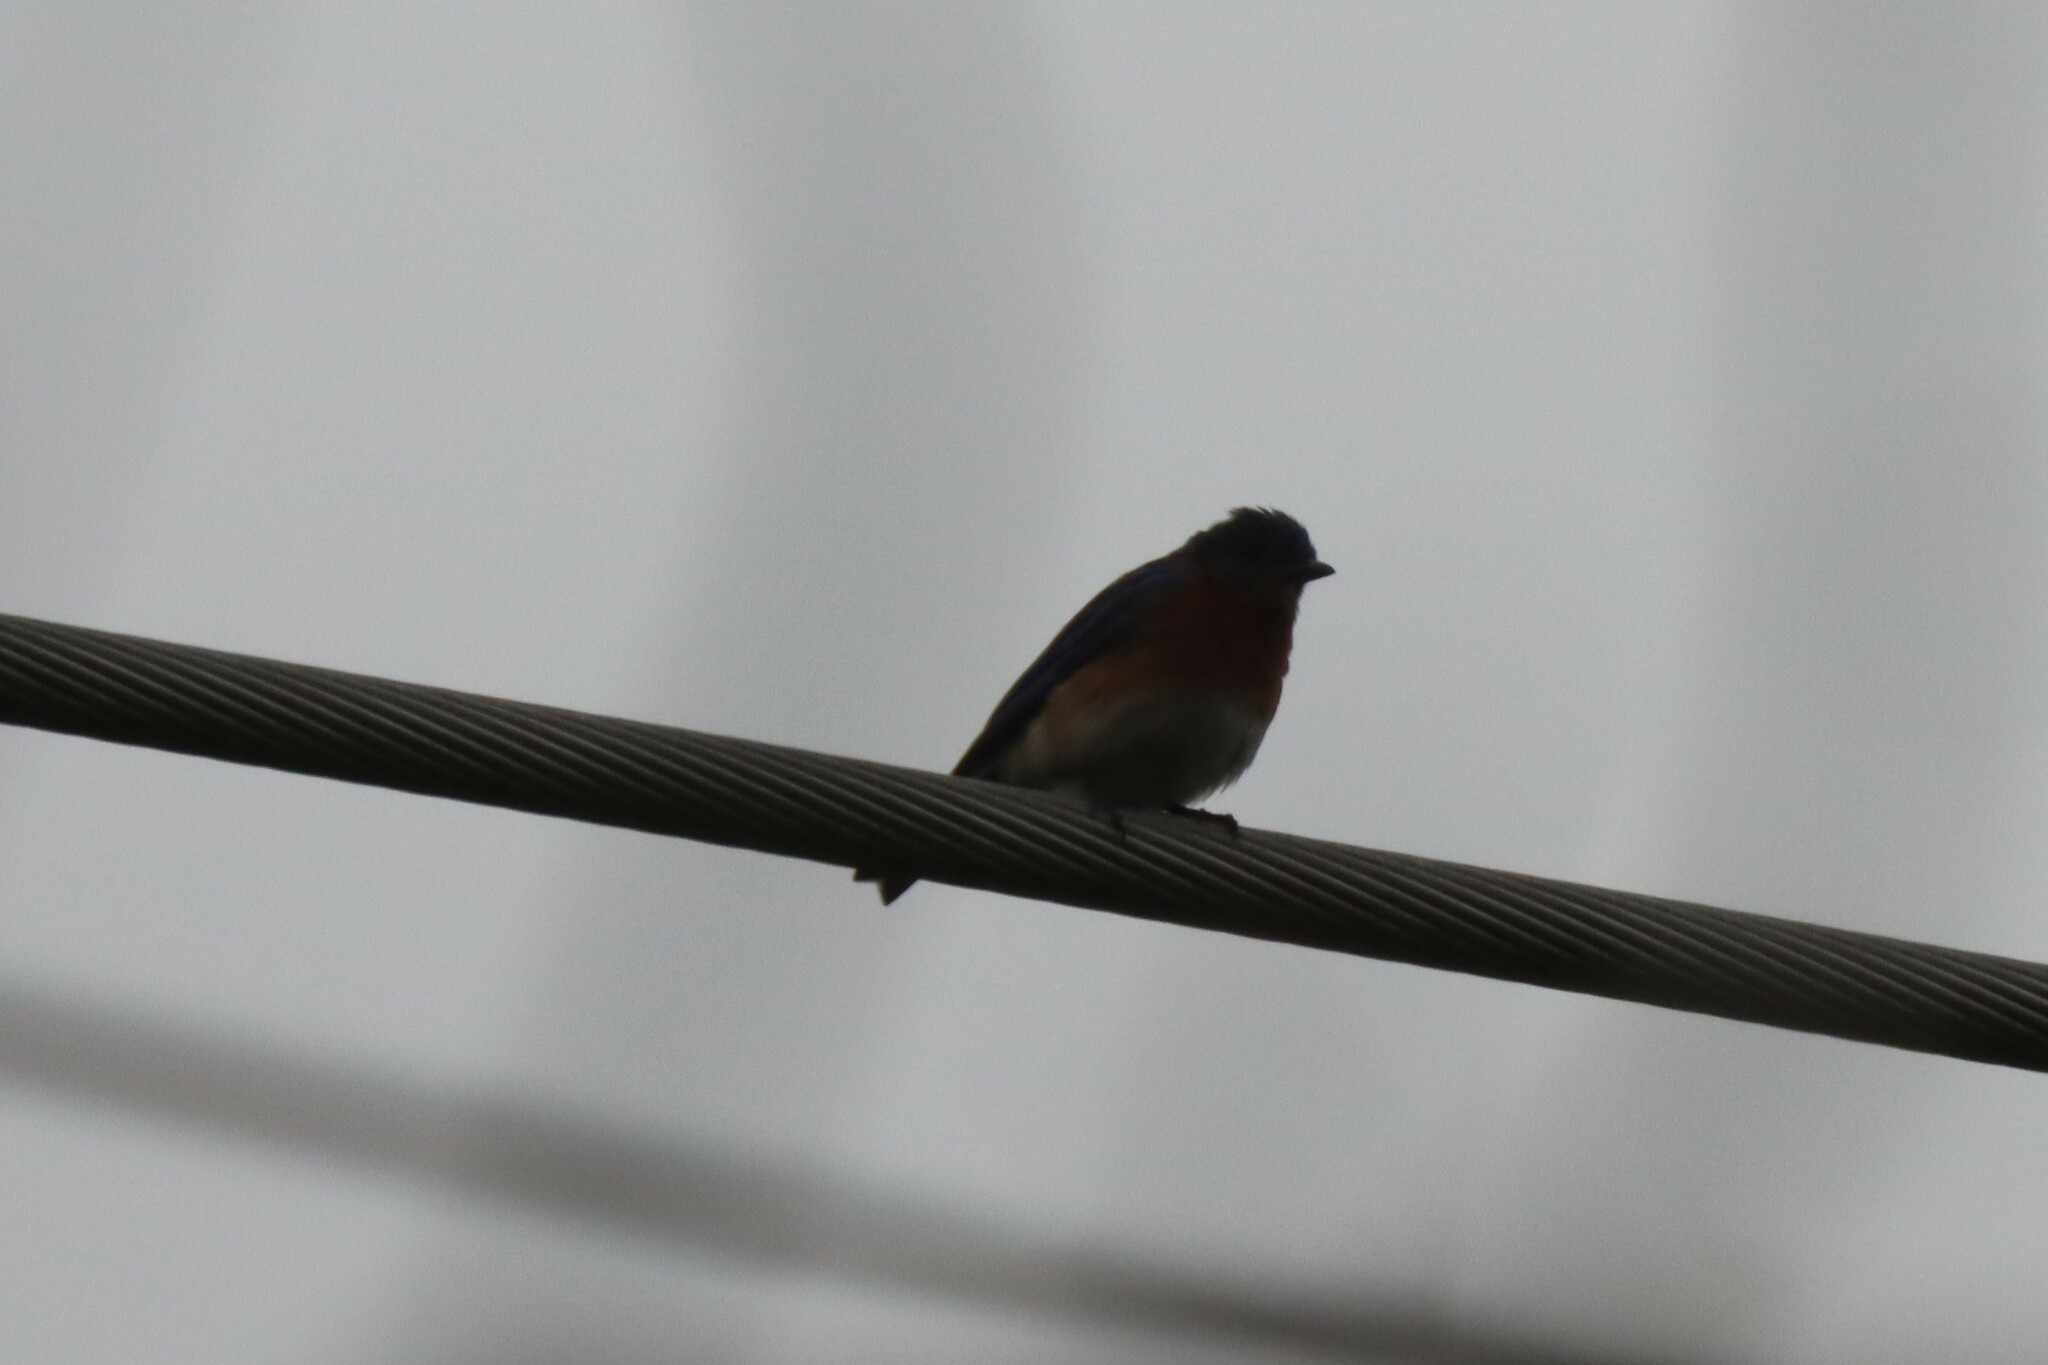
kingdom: Animalia
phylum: Chordata
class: Aves
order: Passeriformes
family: Turdidae
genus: Sialia
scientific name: Sialia sialis
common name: Eastern bluebird
